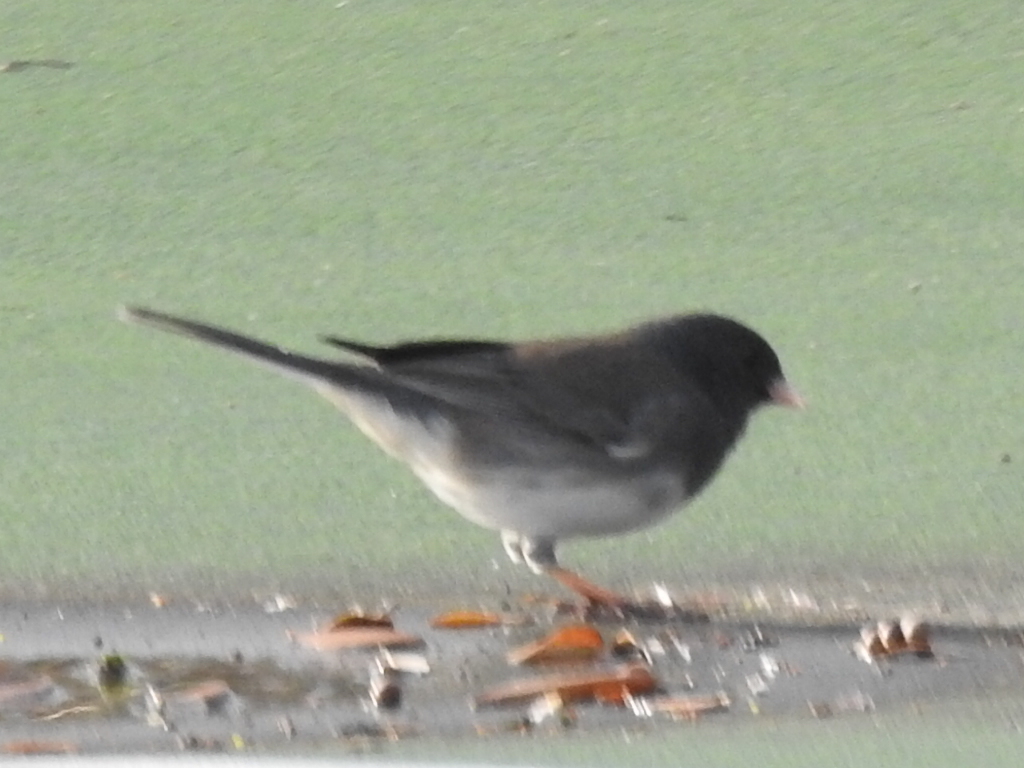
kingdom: Animalia
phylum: Chordata
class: Aves
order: Passeriformes
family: Passerellidae
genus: Junco
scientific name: Junco hyemalis
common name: Dark-eyed junco
